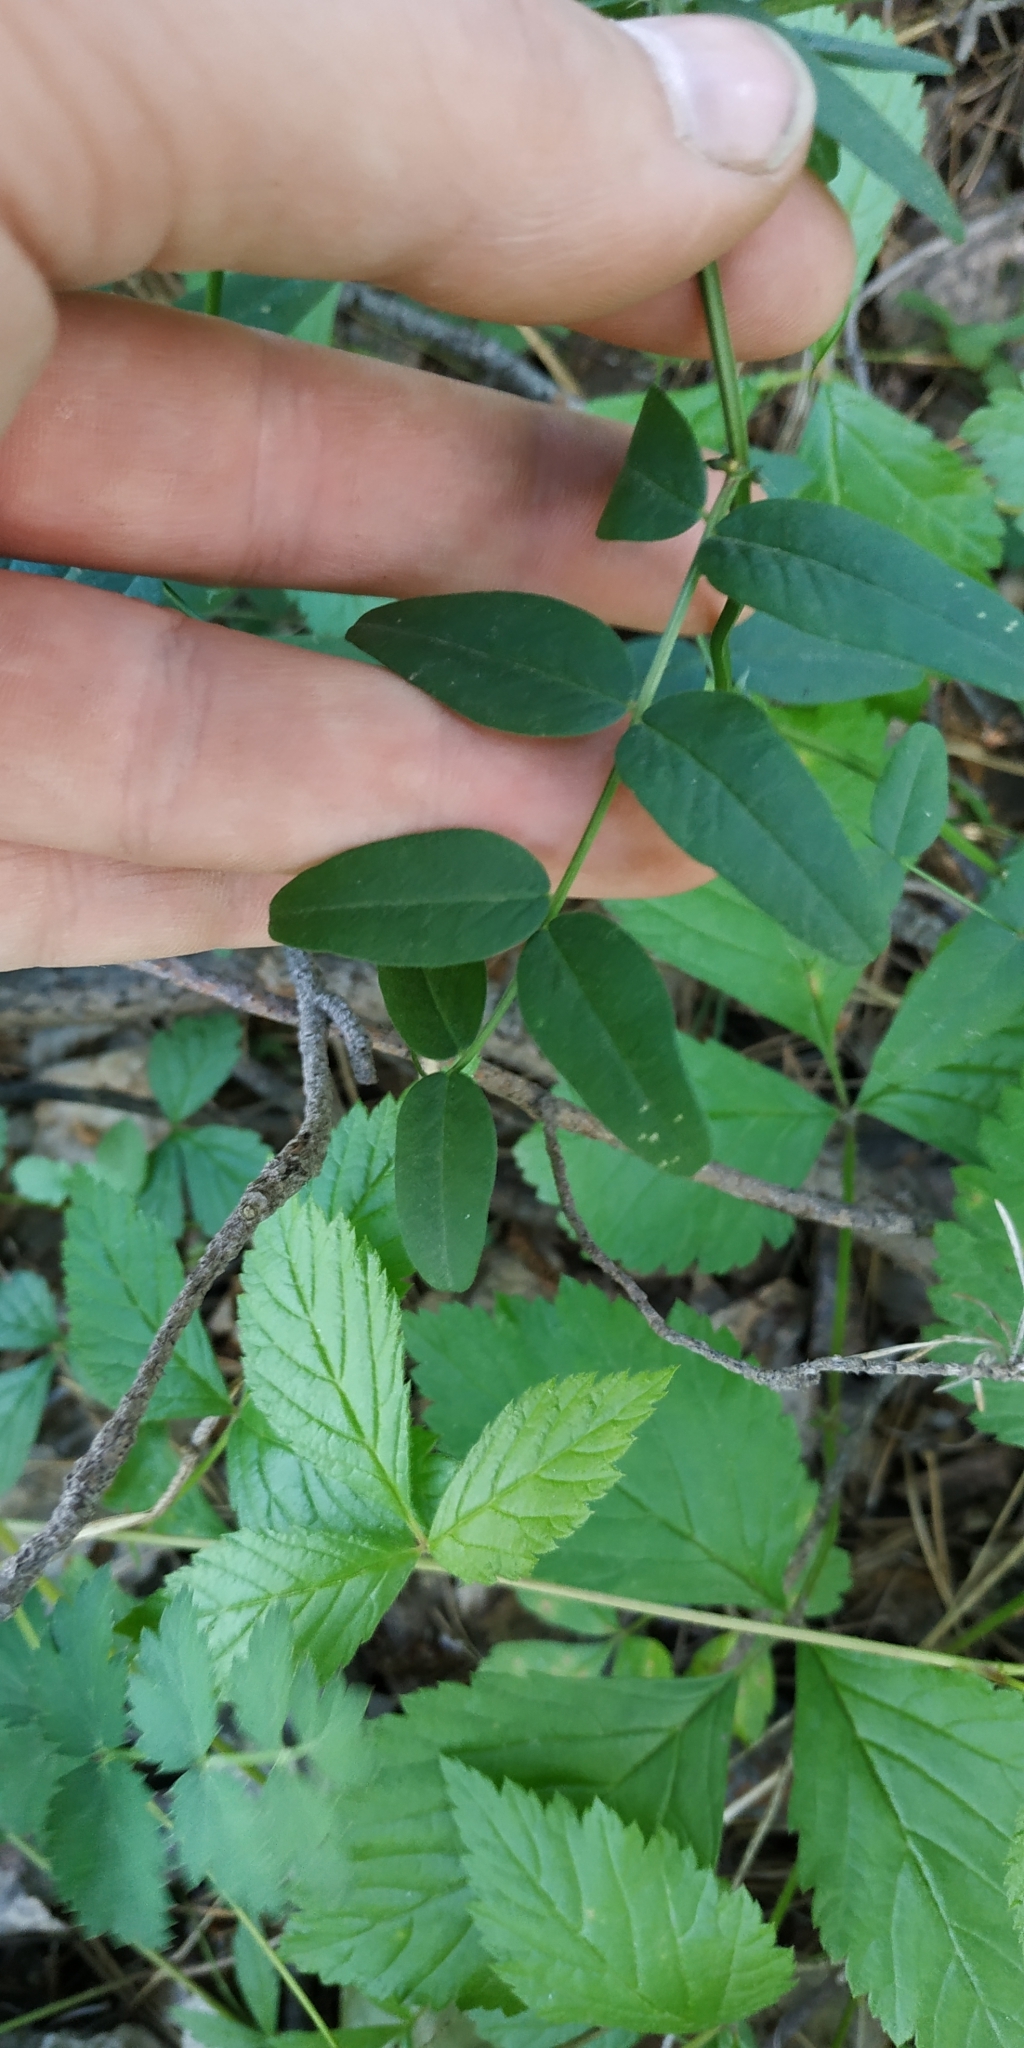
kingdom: Plantae
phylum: Tracheophyta
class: Magnoliopsida
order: Fabales
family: Fabaceae
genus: Vicia
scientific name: Vicia sepium
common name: Bush vetch
